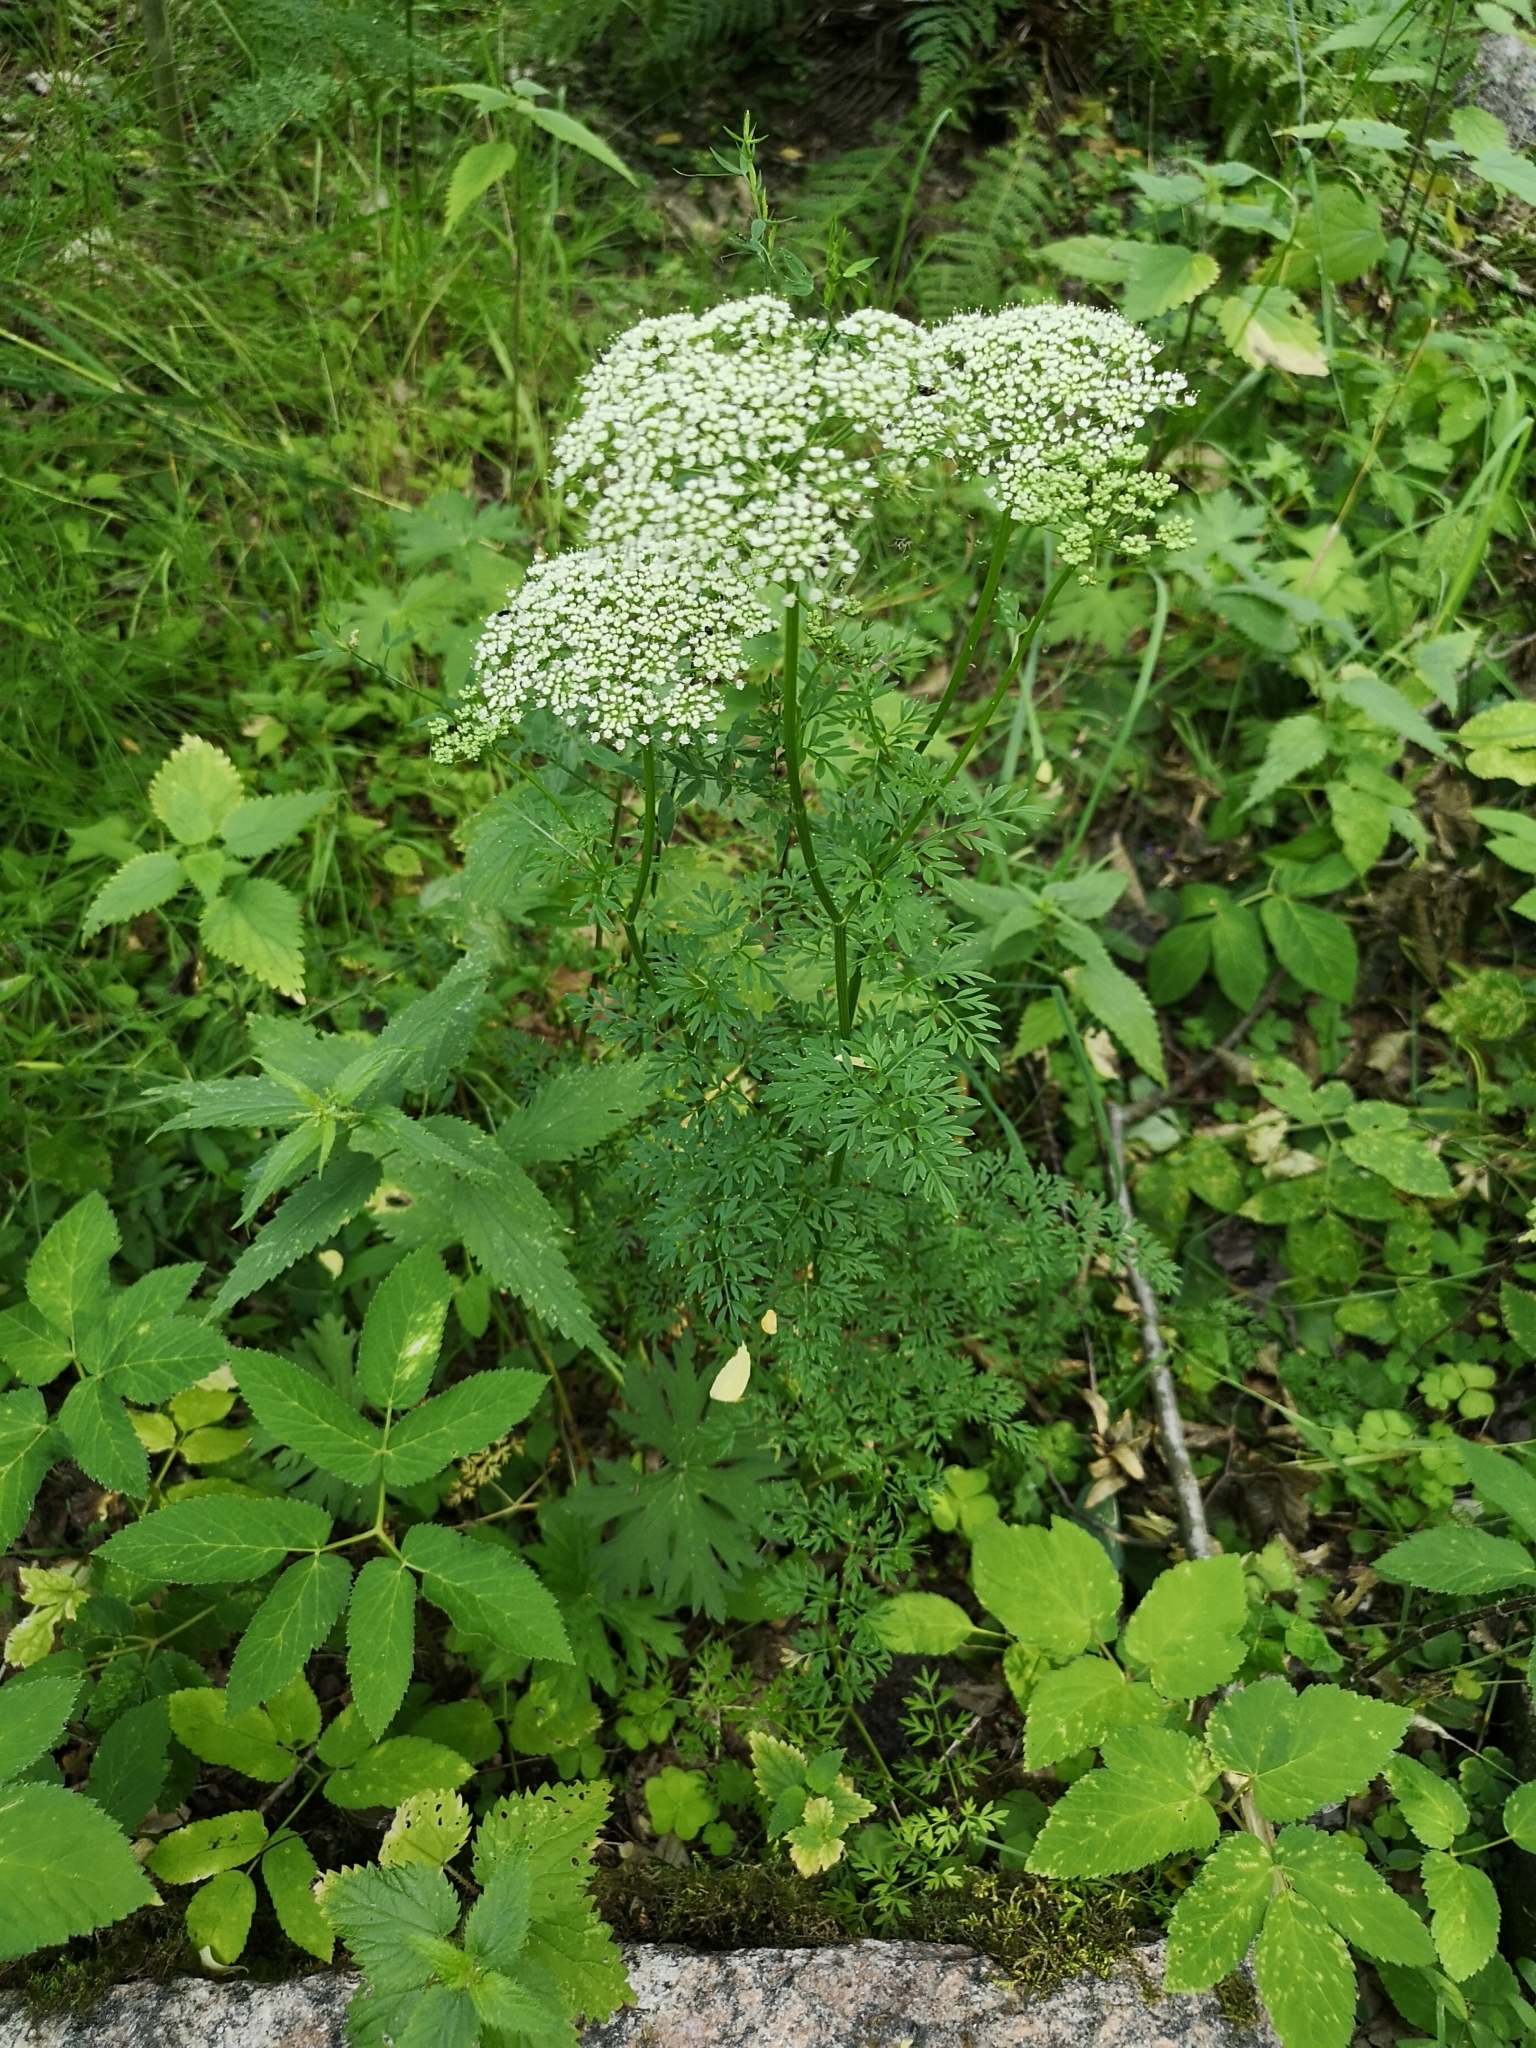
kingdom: Plantae
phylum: Tracheophyta
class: Magnoliopsida
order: Apiales
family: Apiaceae
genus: Selinum
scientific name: Selinum carvifolia
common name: Cambridge milk-parsley
